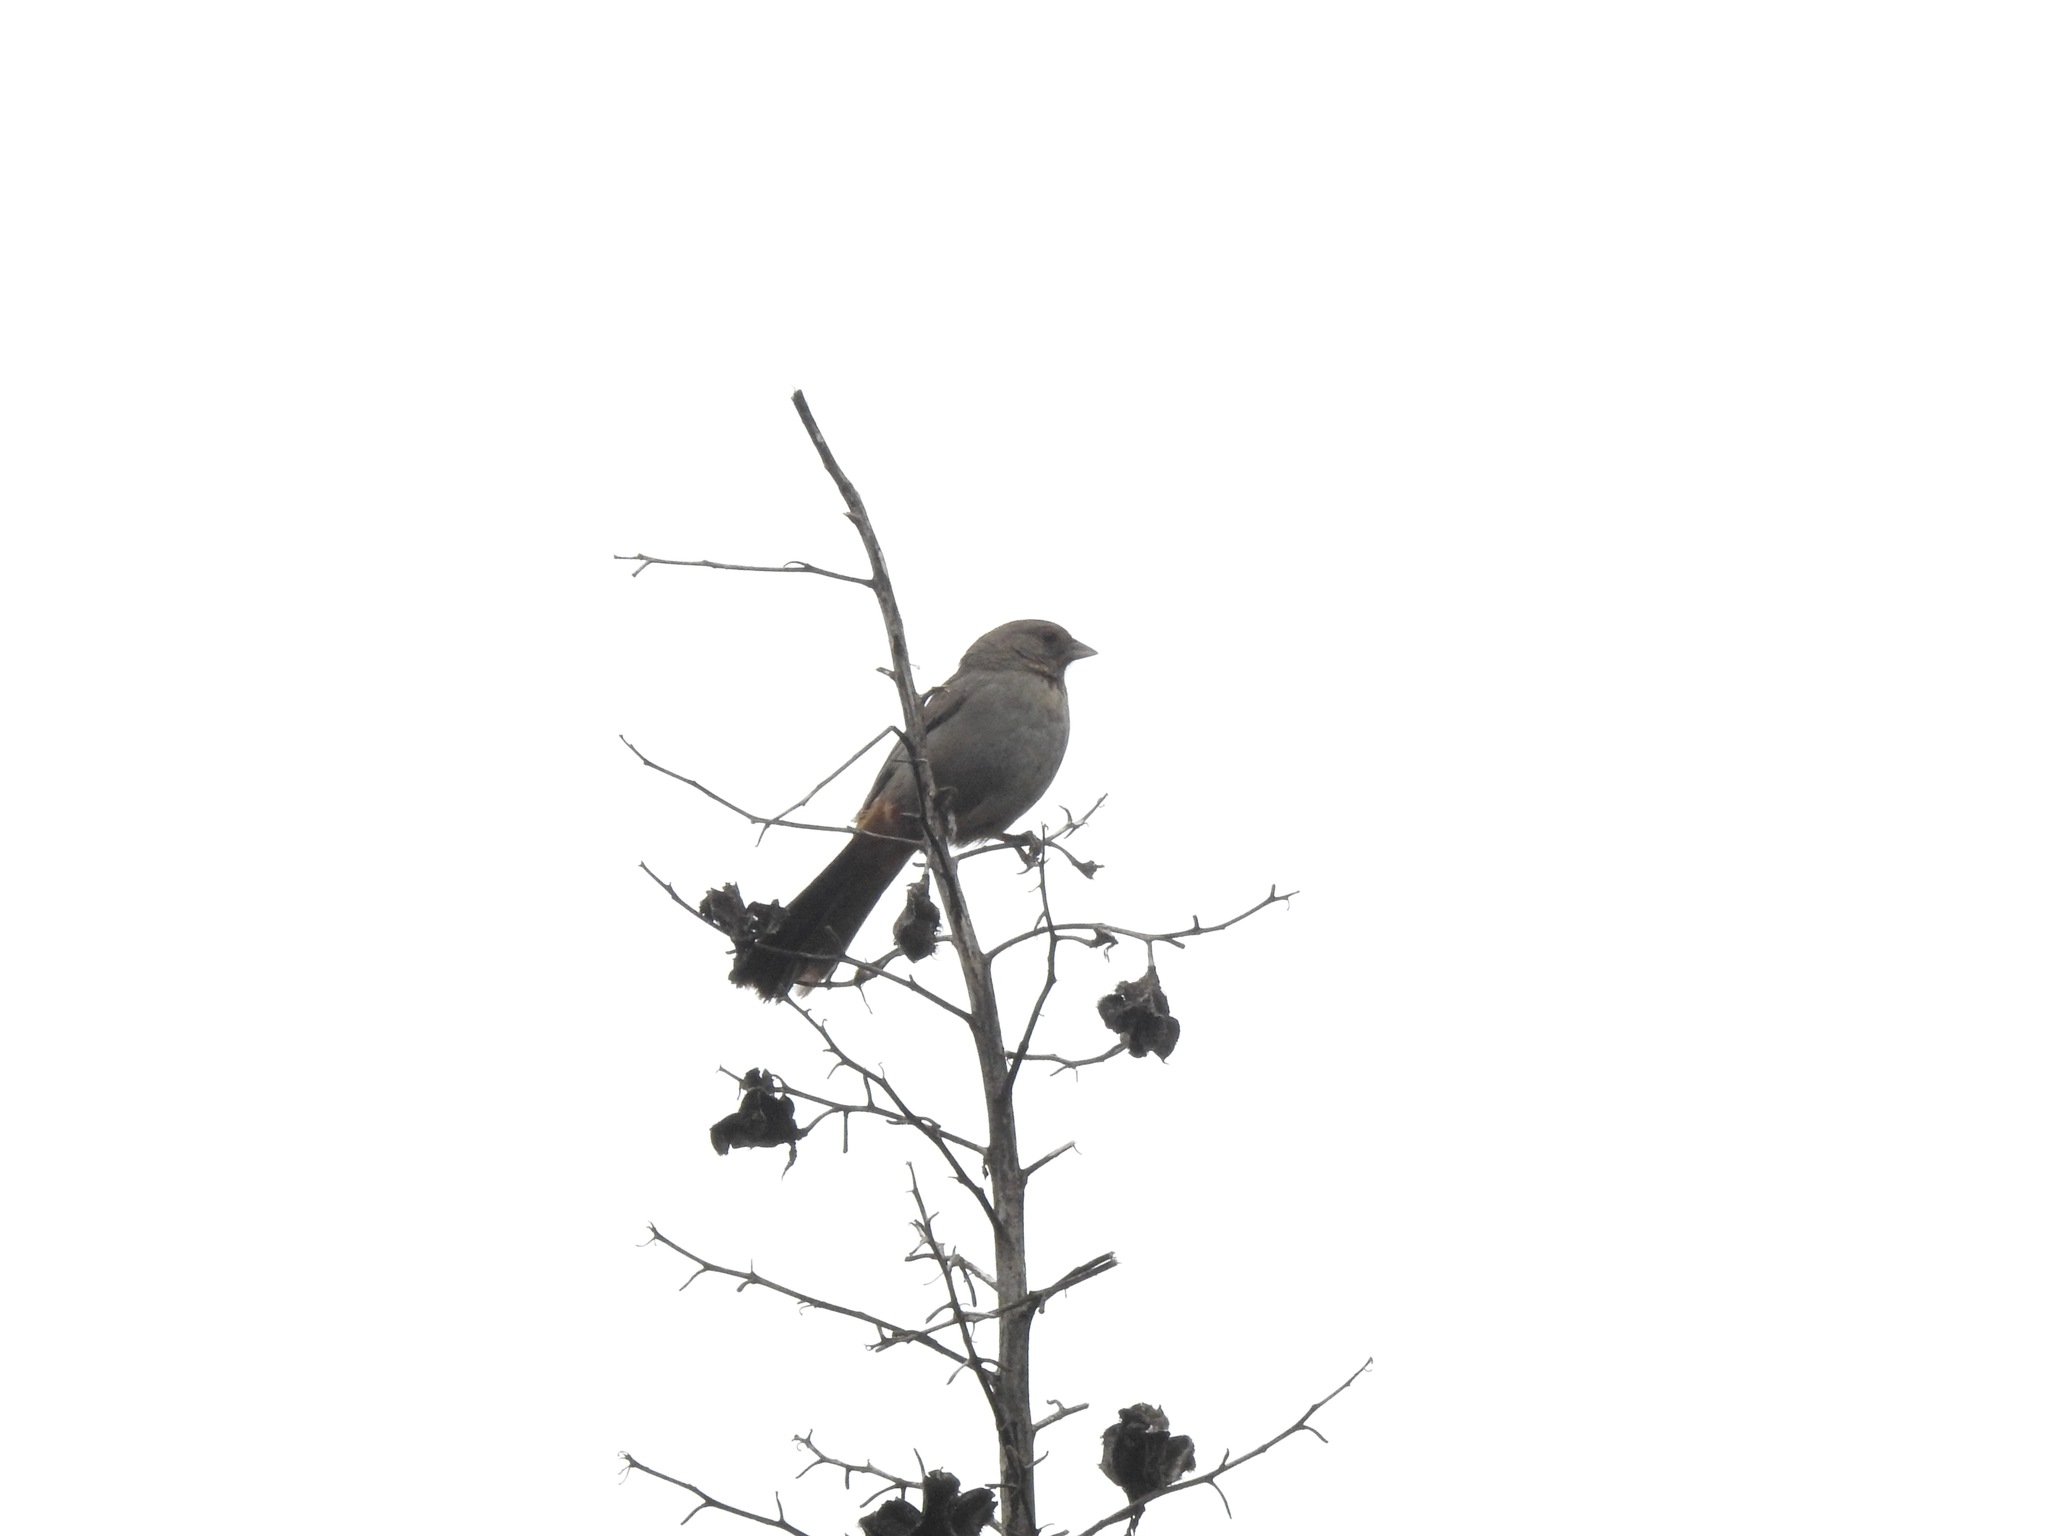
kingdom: Animalia
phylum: Chordata
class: Aves
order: Passeriformes
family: Passerellidae
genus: Melozone
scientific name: Melozone crissalis
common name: California towhee
